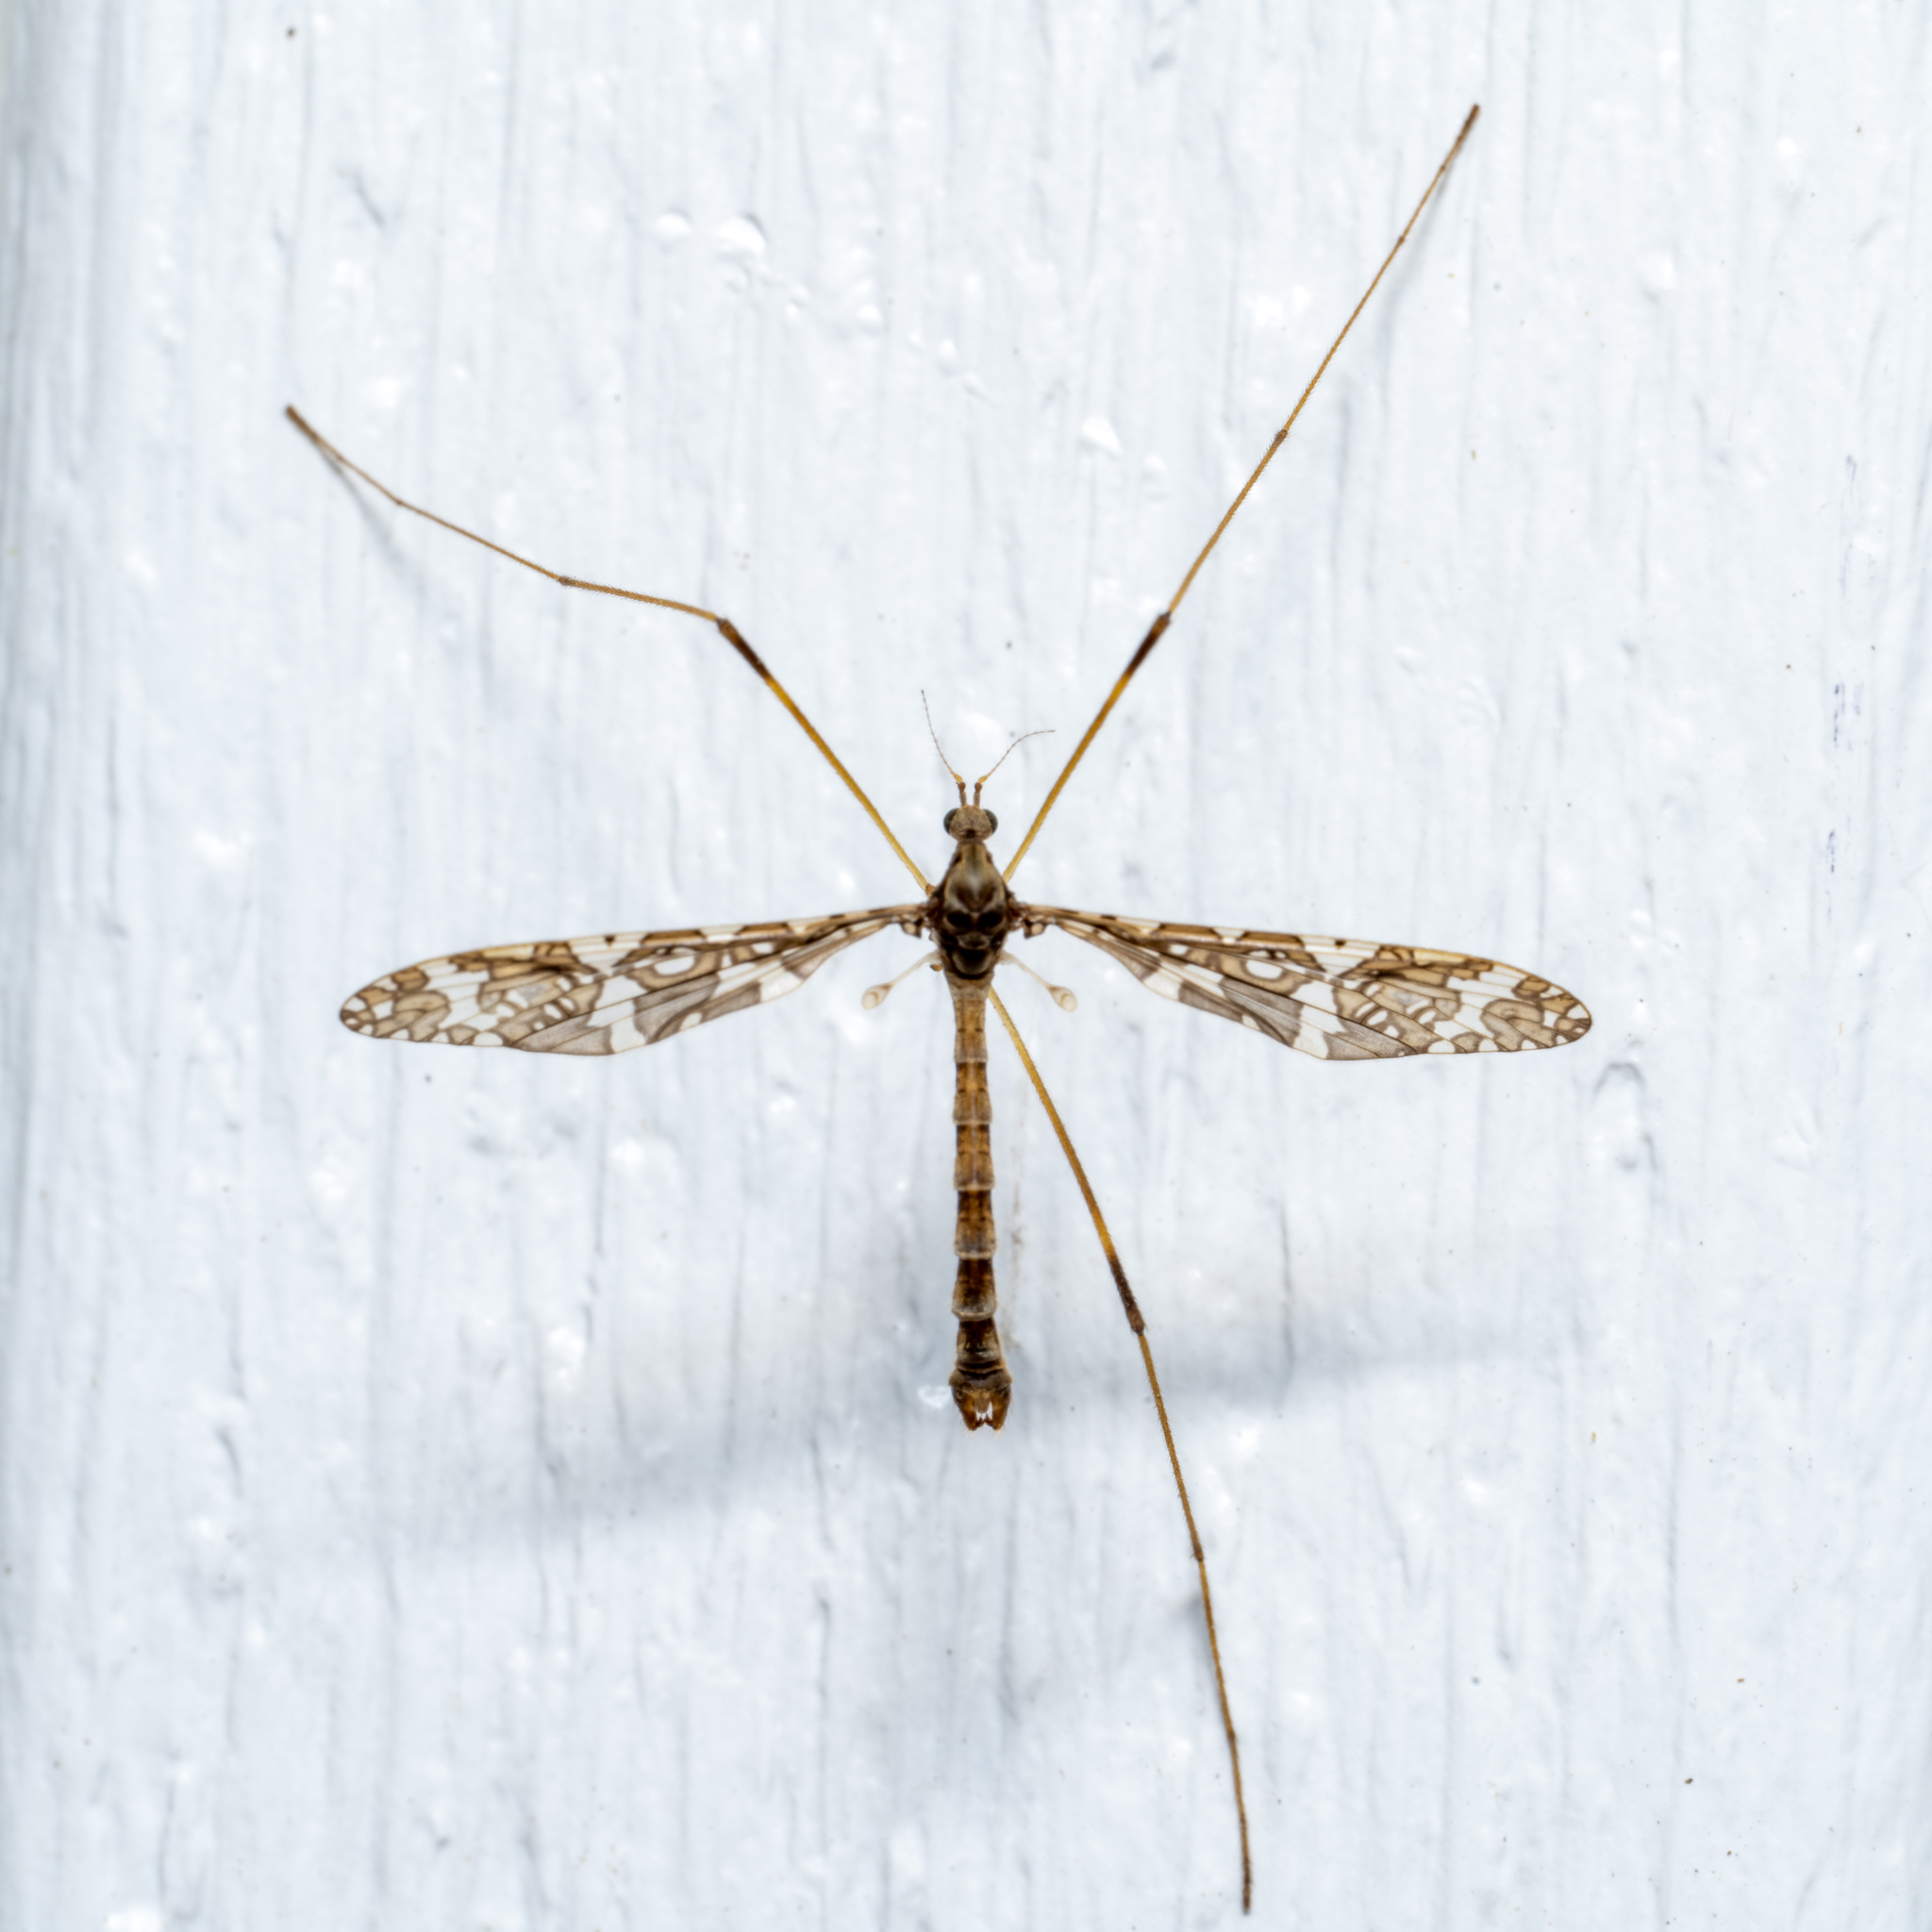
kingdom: Animalia
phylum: Arthropoda
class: Insecta
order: Diptera
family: Limoniidae
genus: Epiphragma
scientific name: Epiphragma fasciapenne
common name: Band-winged crane fly
